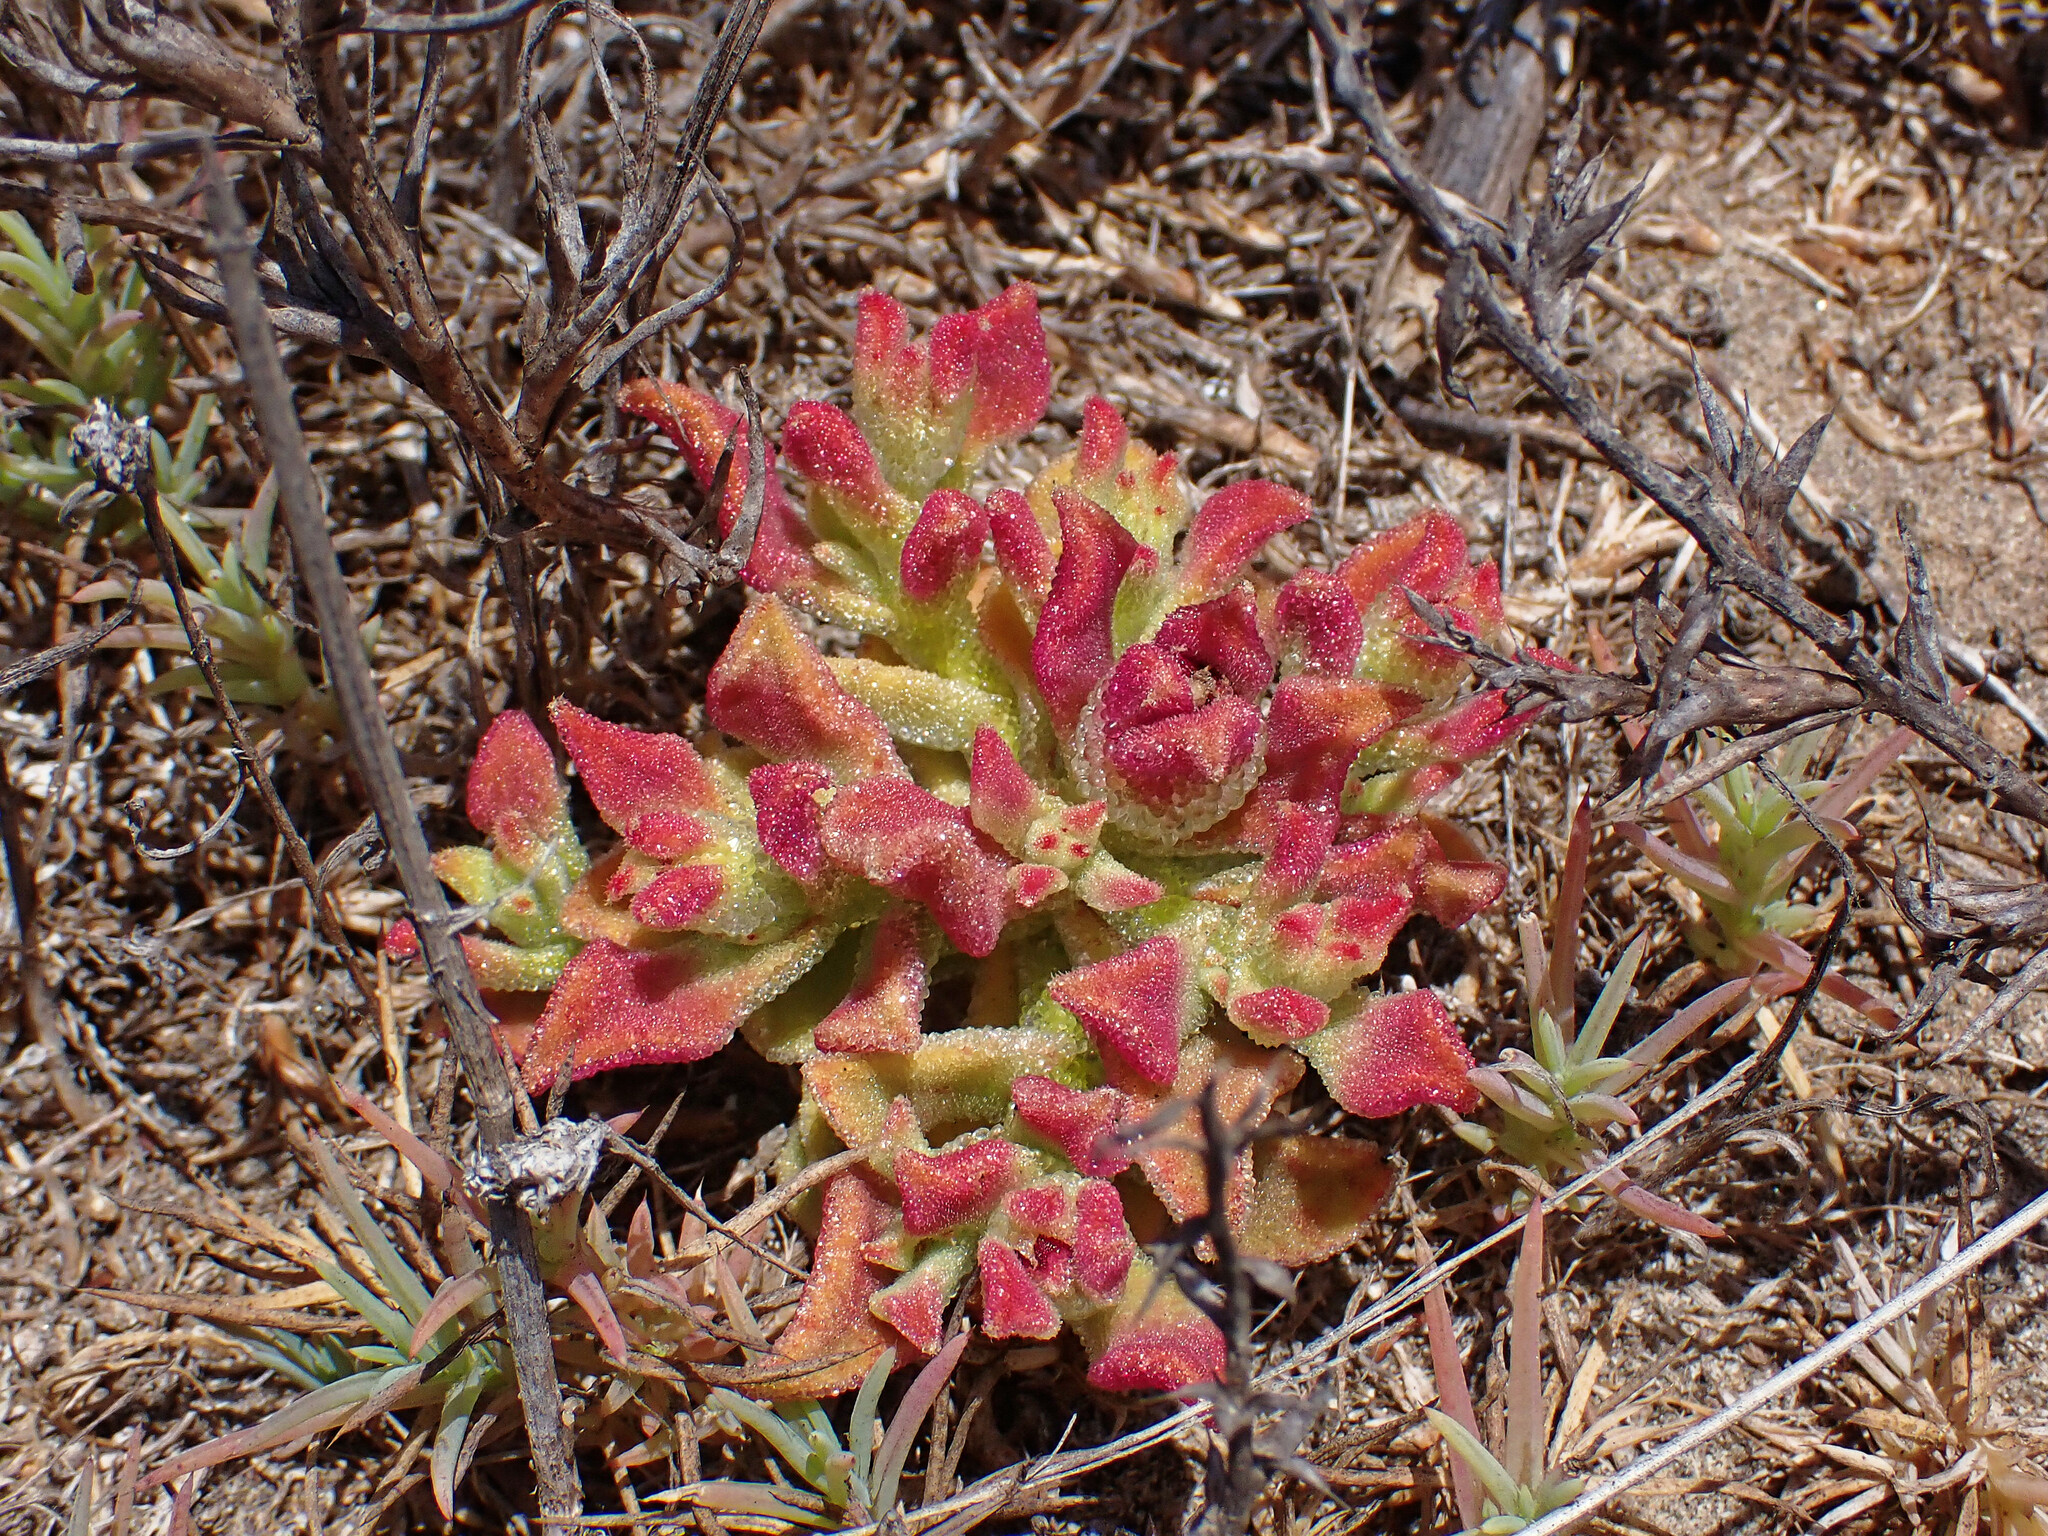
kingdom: Plantae
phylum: Tracheophyta
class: Magnoliopsida
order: Caryophyllales
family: Aizoaceae
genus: Mesembryanthemum
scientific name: Mesembryanthemum nodiflorum
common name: Slenderleaf iceplant
